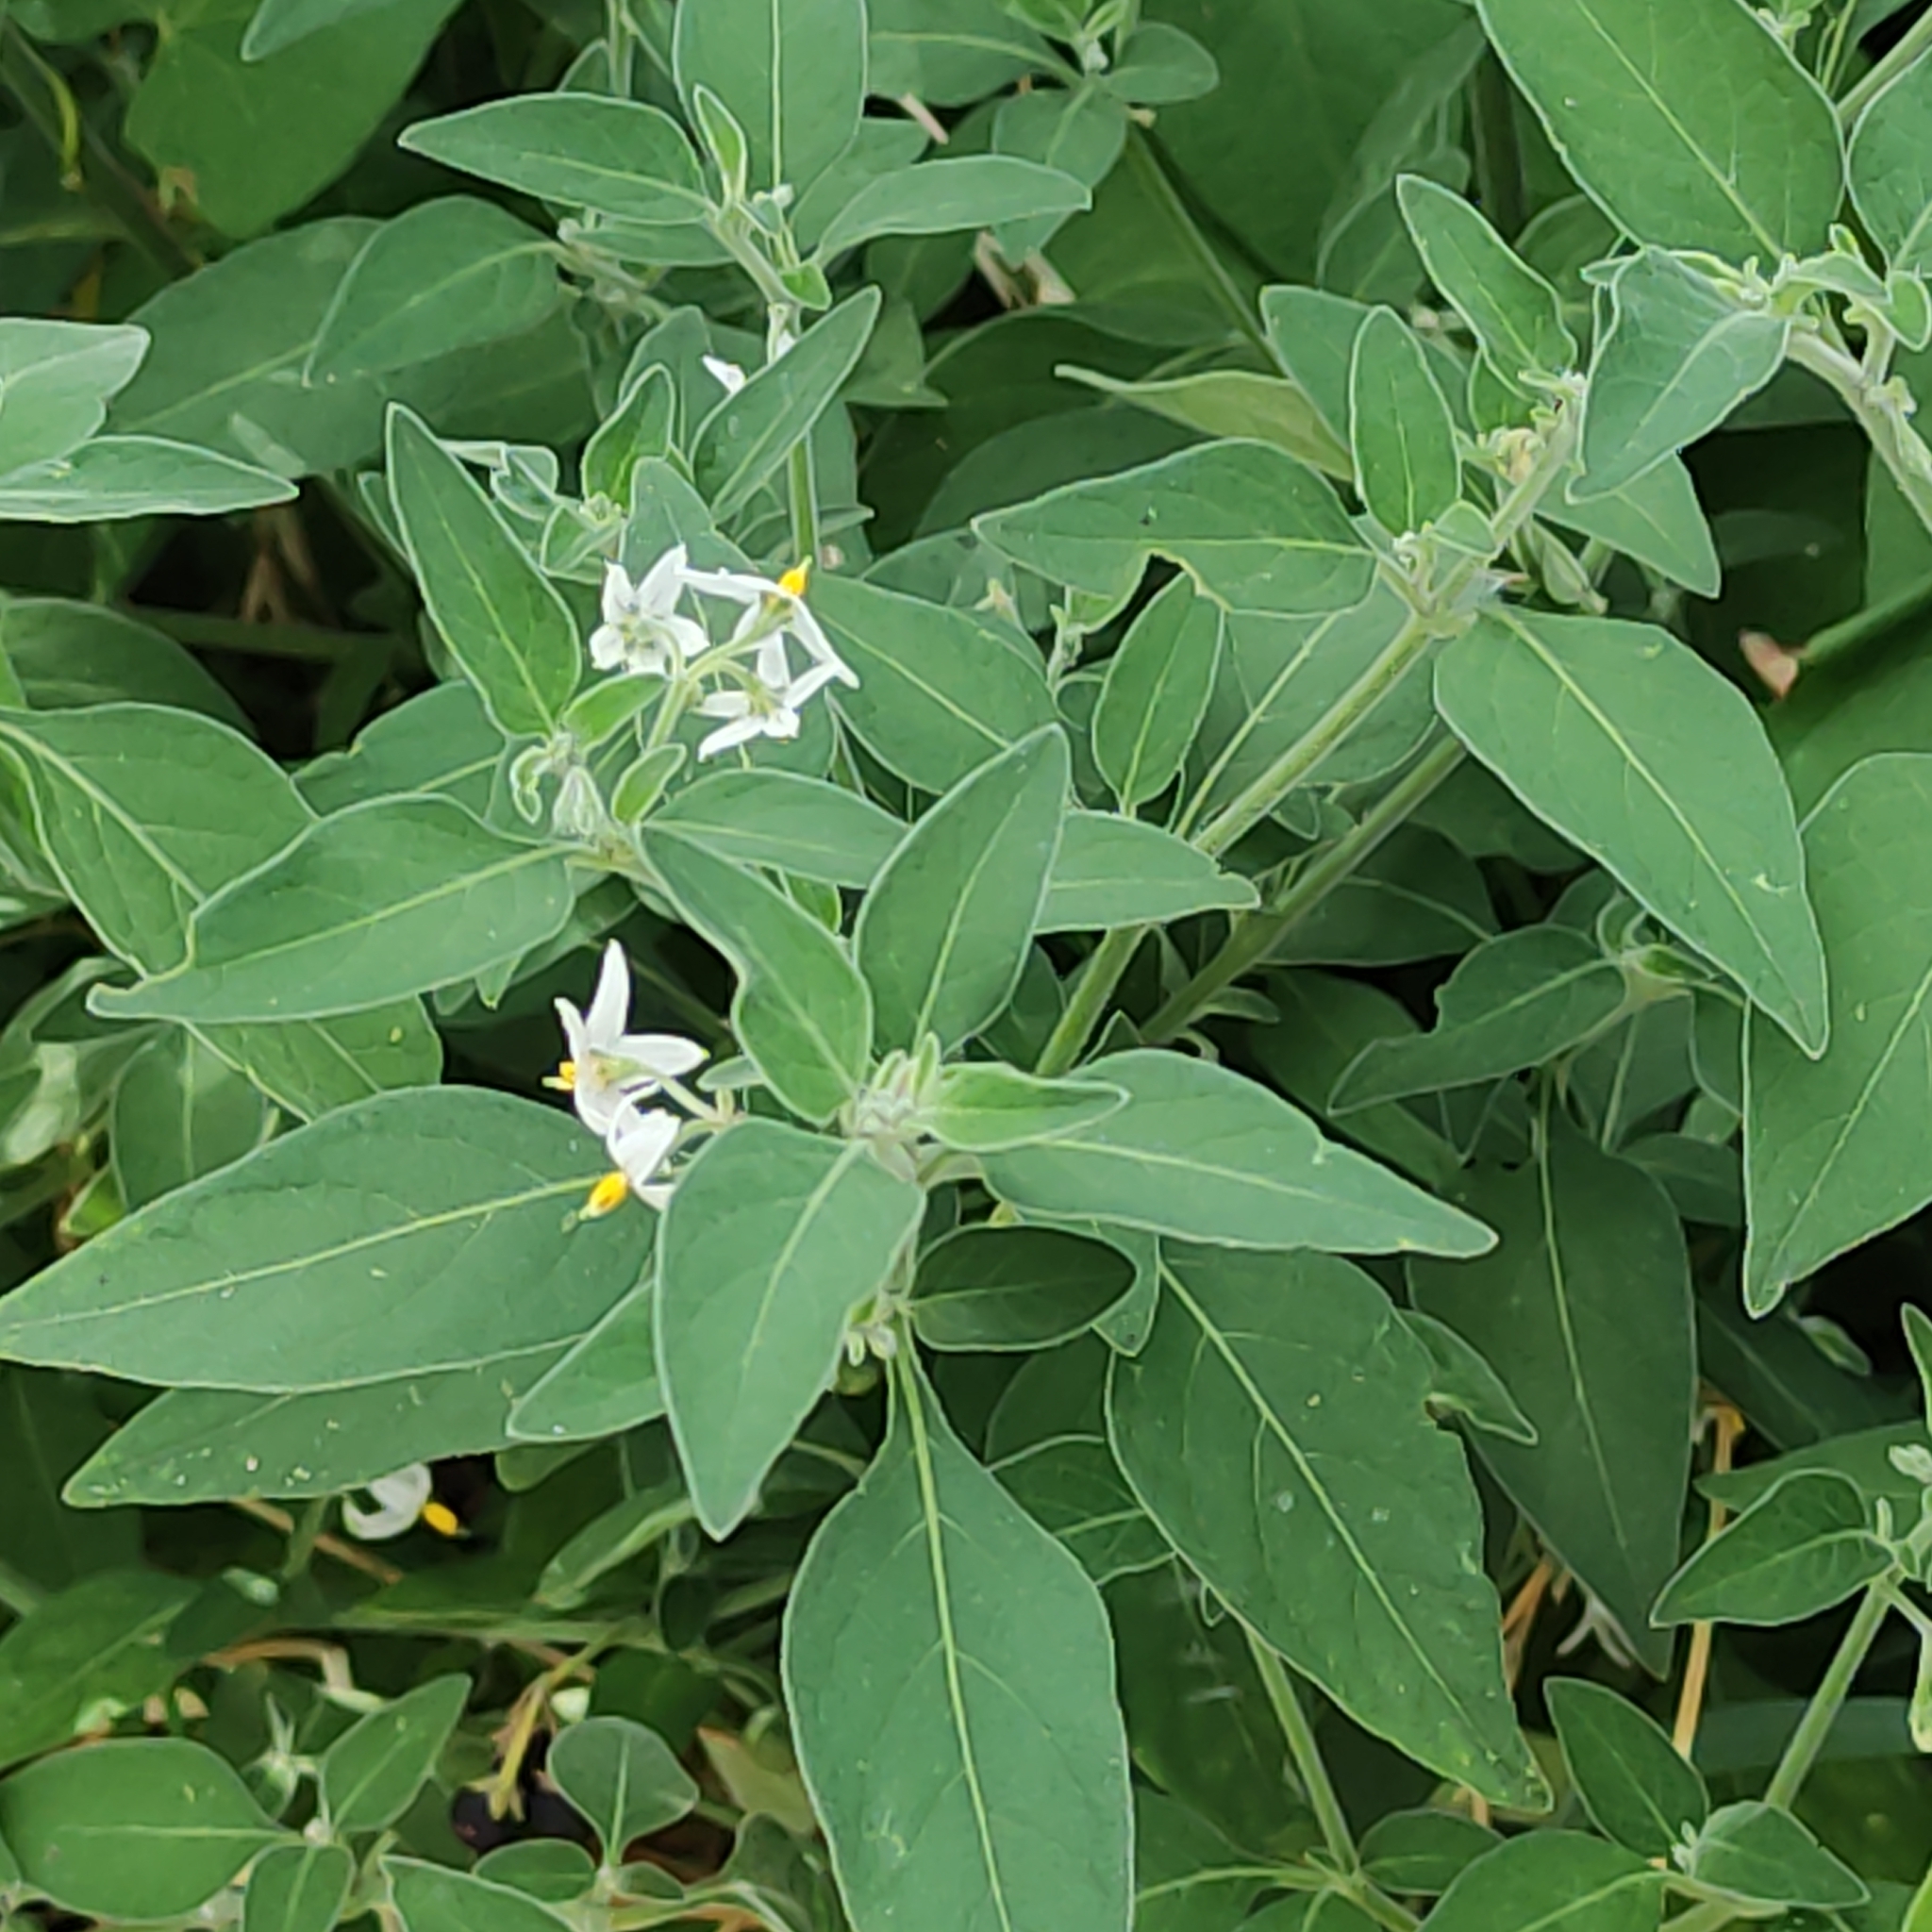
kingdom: Plantae
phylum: Tracheophyta
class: Magnoliopsida
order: Solanales
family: Solanaceae
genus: Solanum
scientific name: Solanum chenopodioides
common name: Tall nightshade
